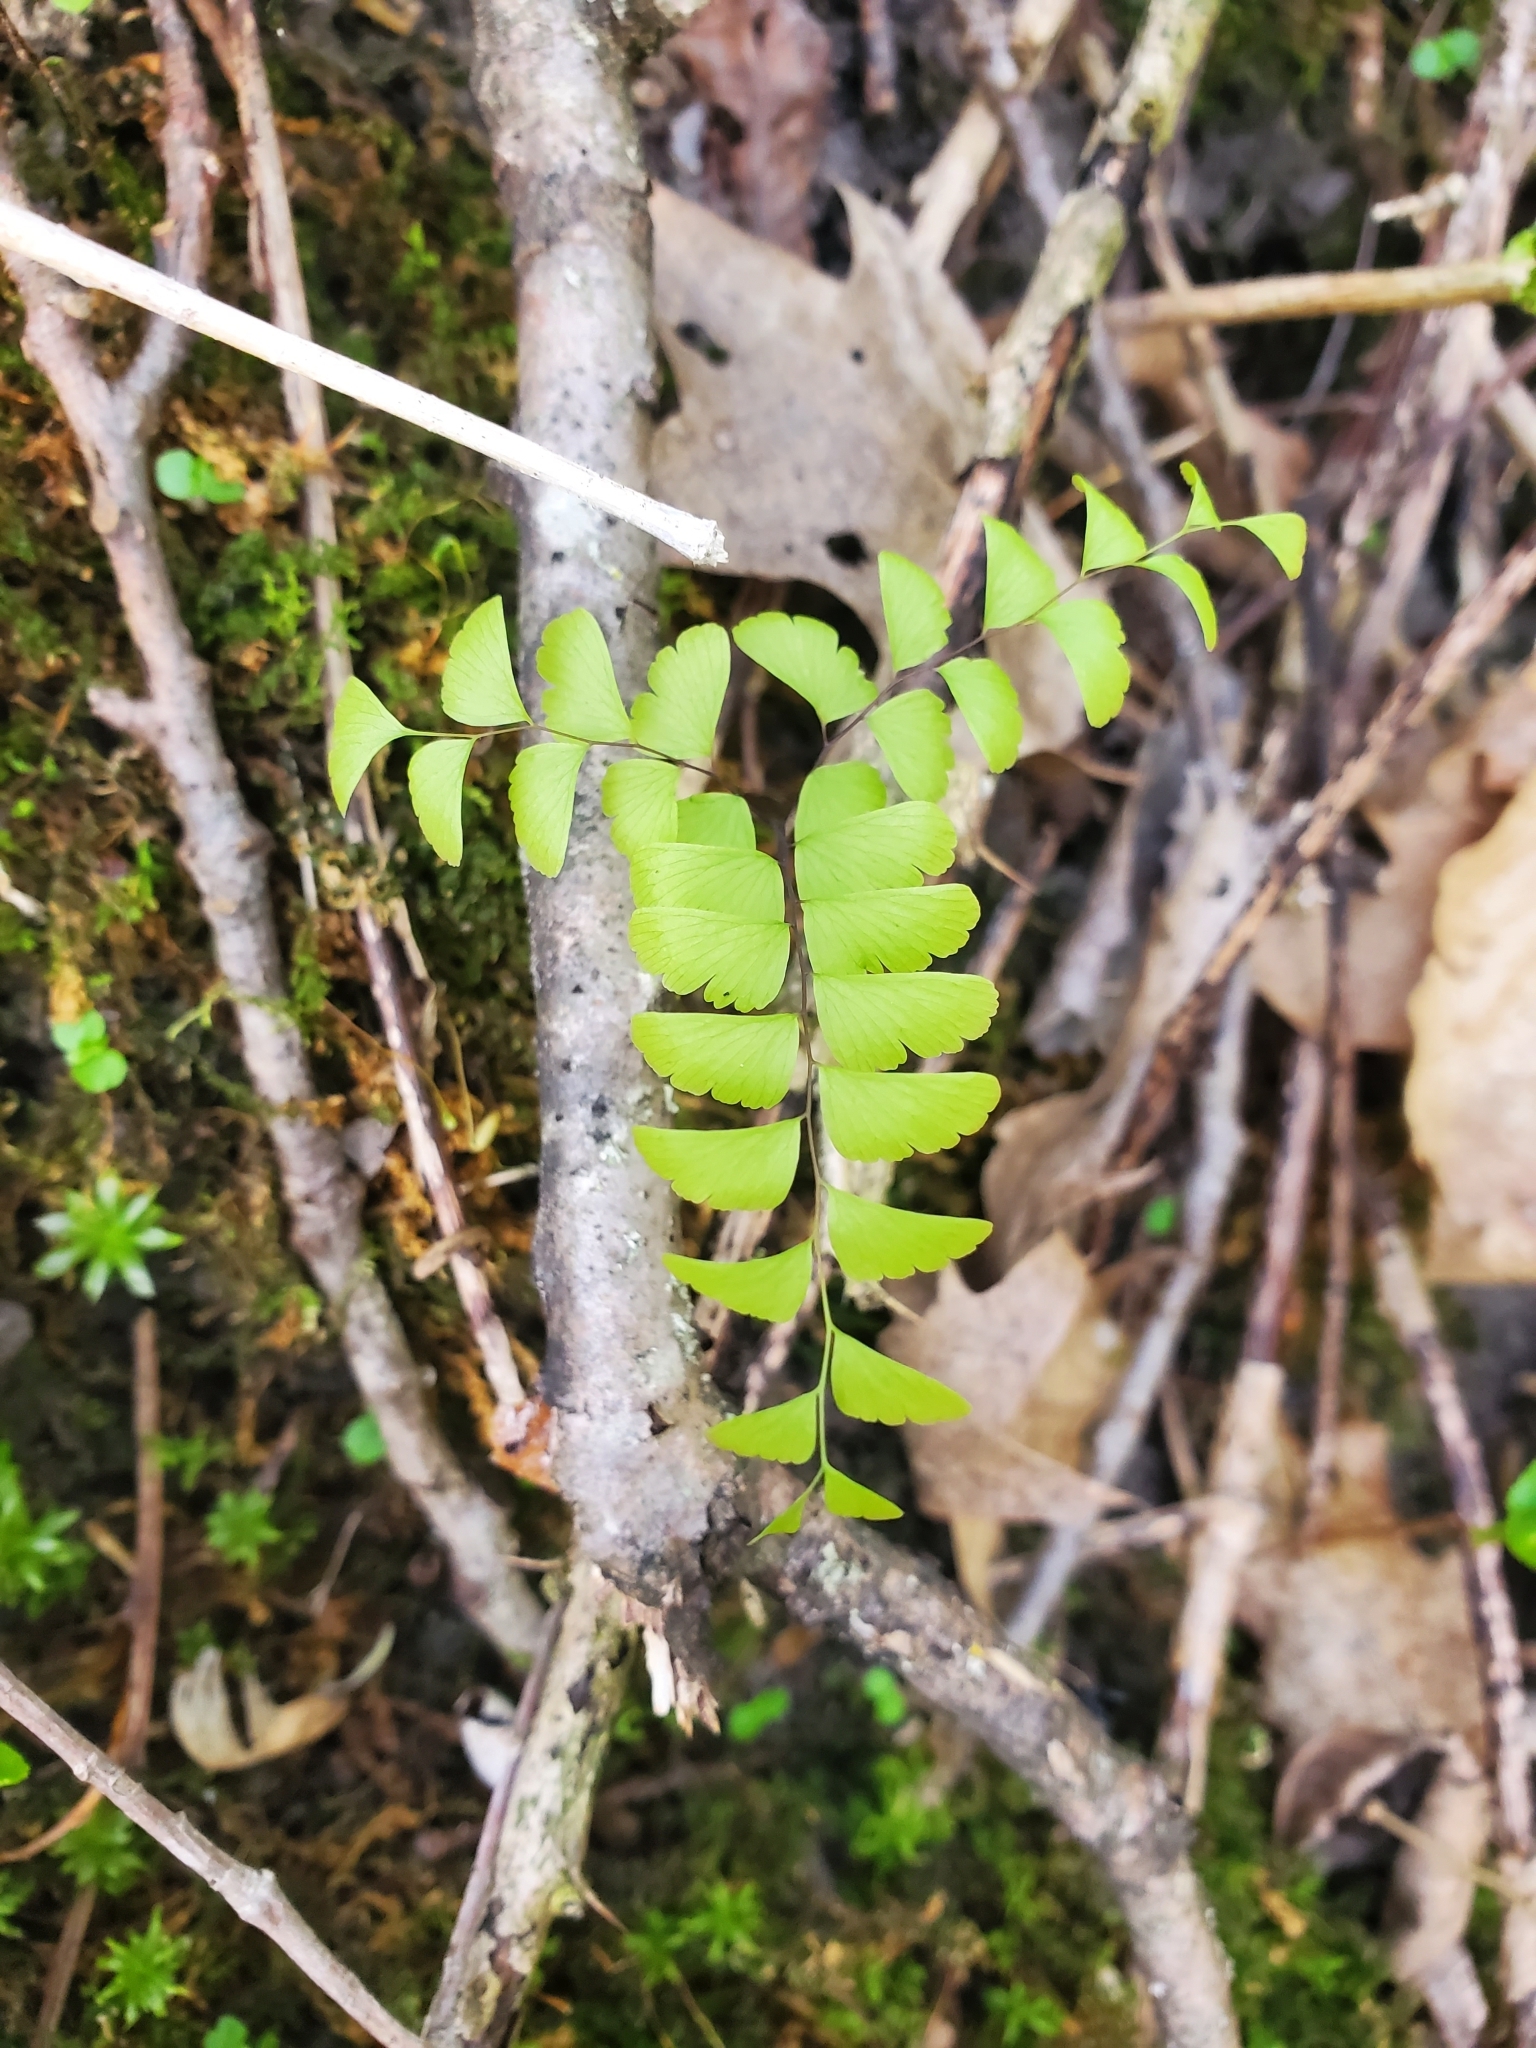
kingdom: Plantae
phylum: Tracheophyta
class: Polypodiopsida
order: Polypodiales
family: Pteridaceae
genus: Adiantum
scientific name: Adiantum pedatum
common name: Five-finger fern
